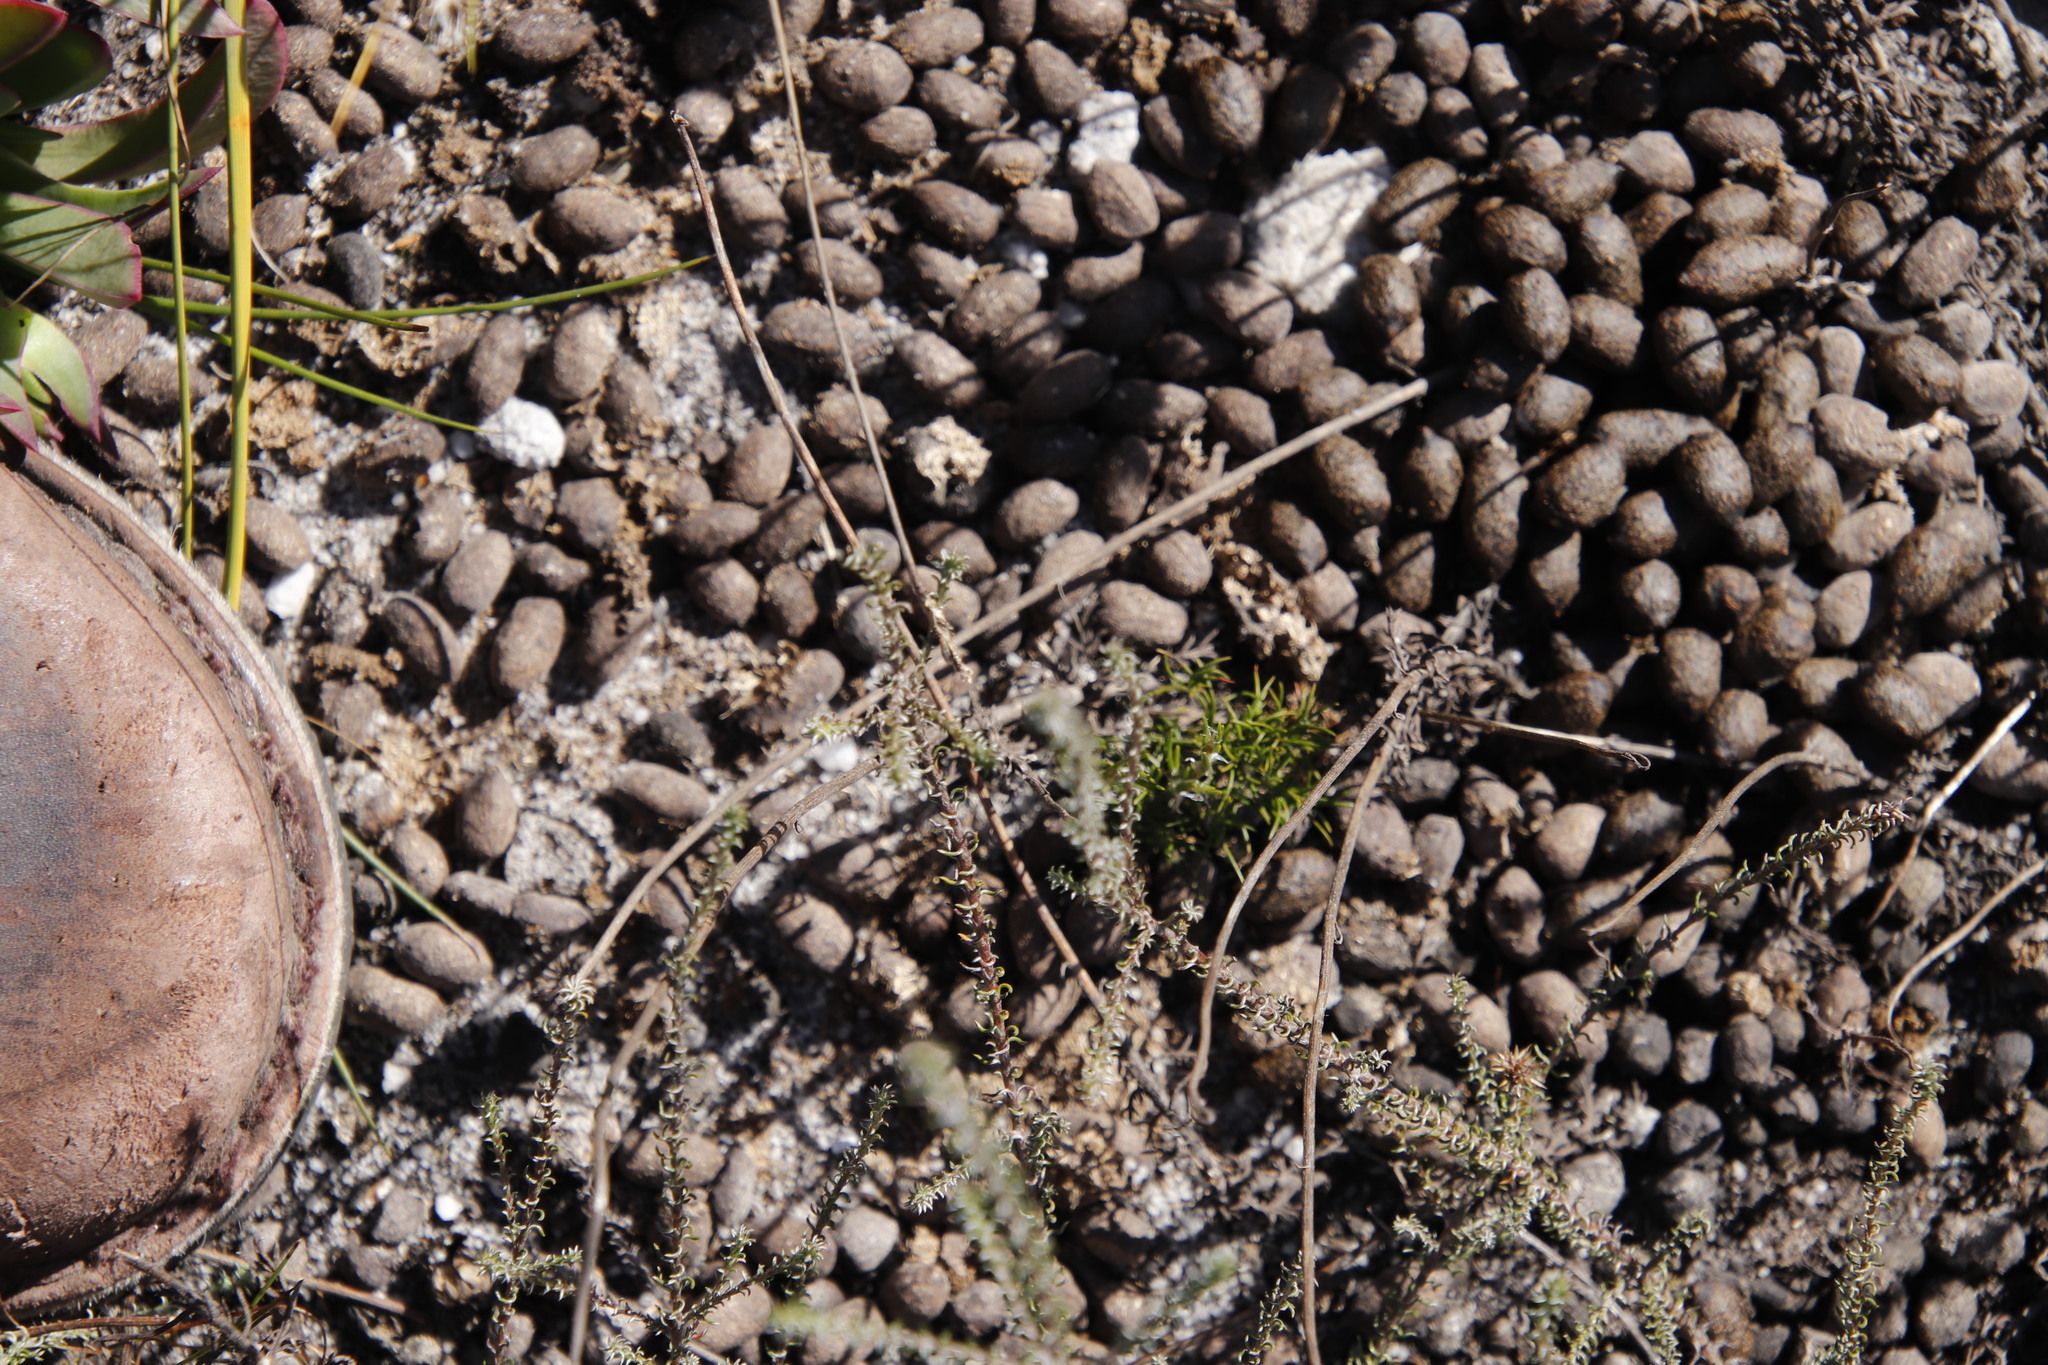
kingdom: Animalia
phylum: Chordata
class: Mammalia
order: Artiodactyla
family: Bovidae
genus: Oreotragus
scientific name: Oreotragus oreotragus
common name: Klipspringer
